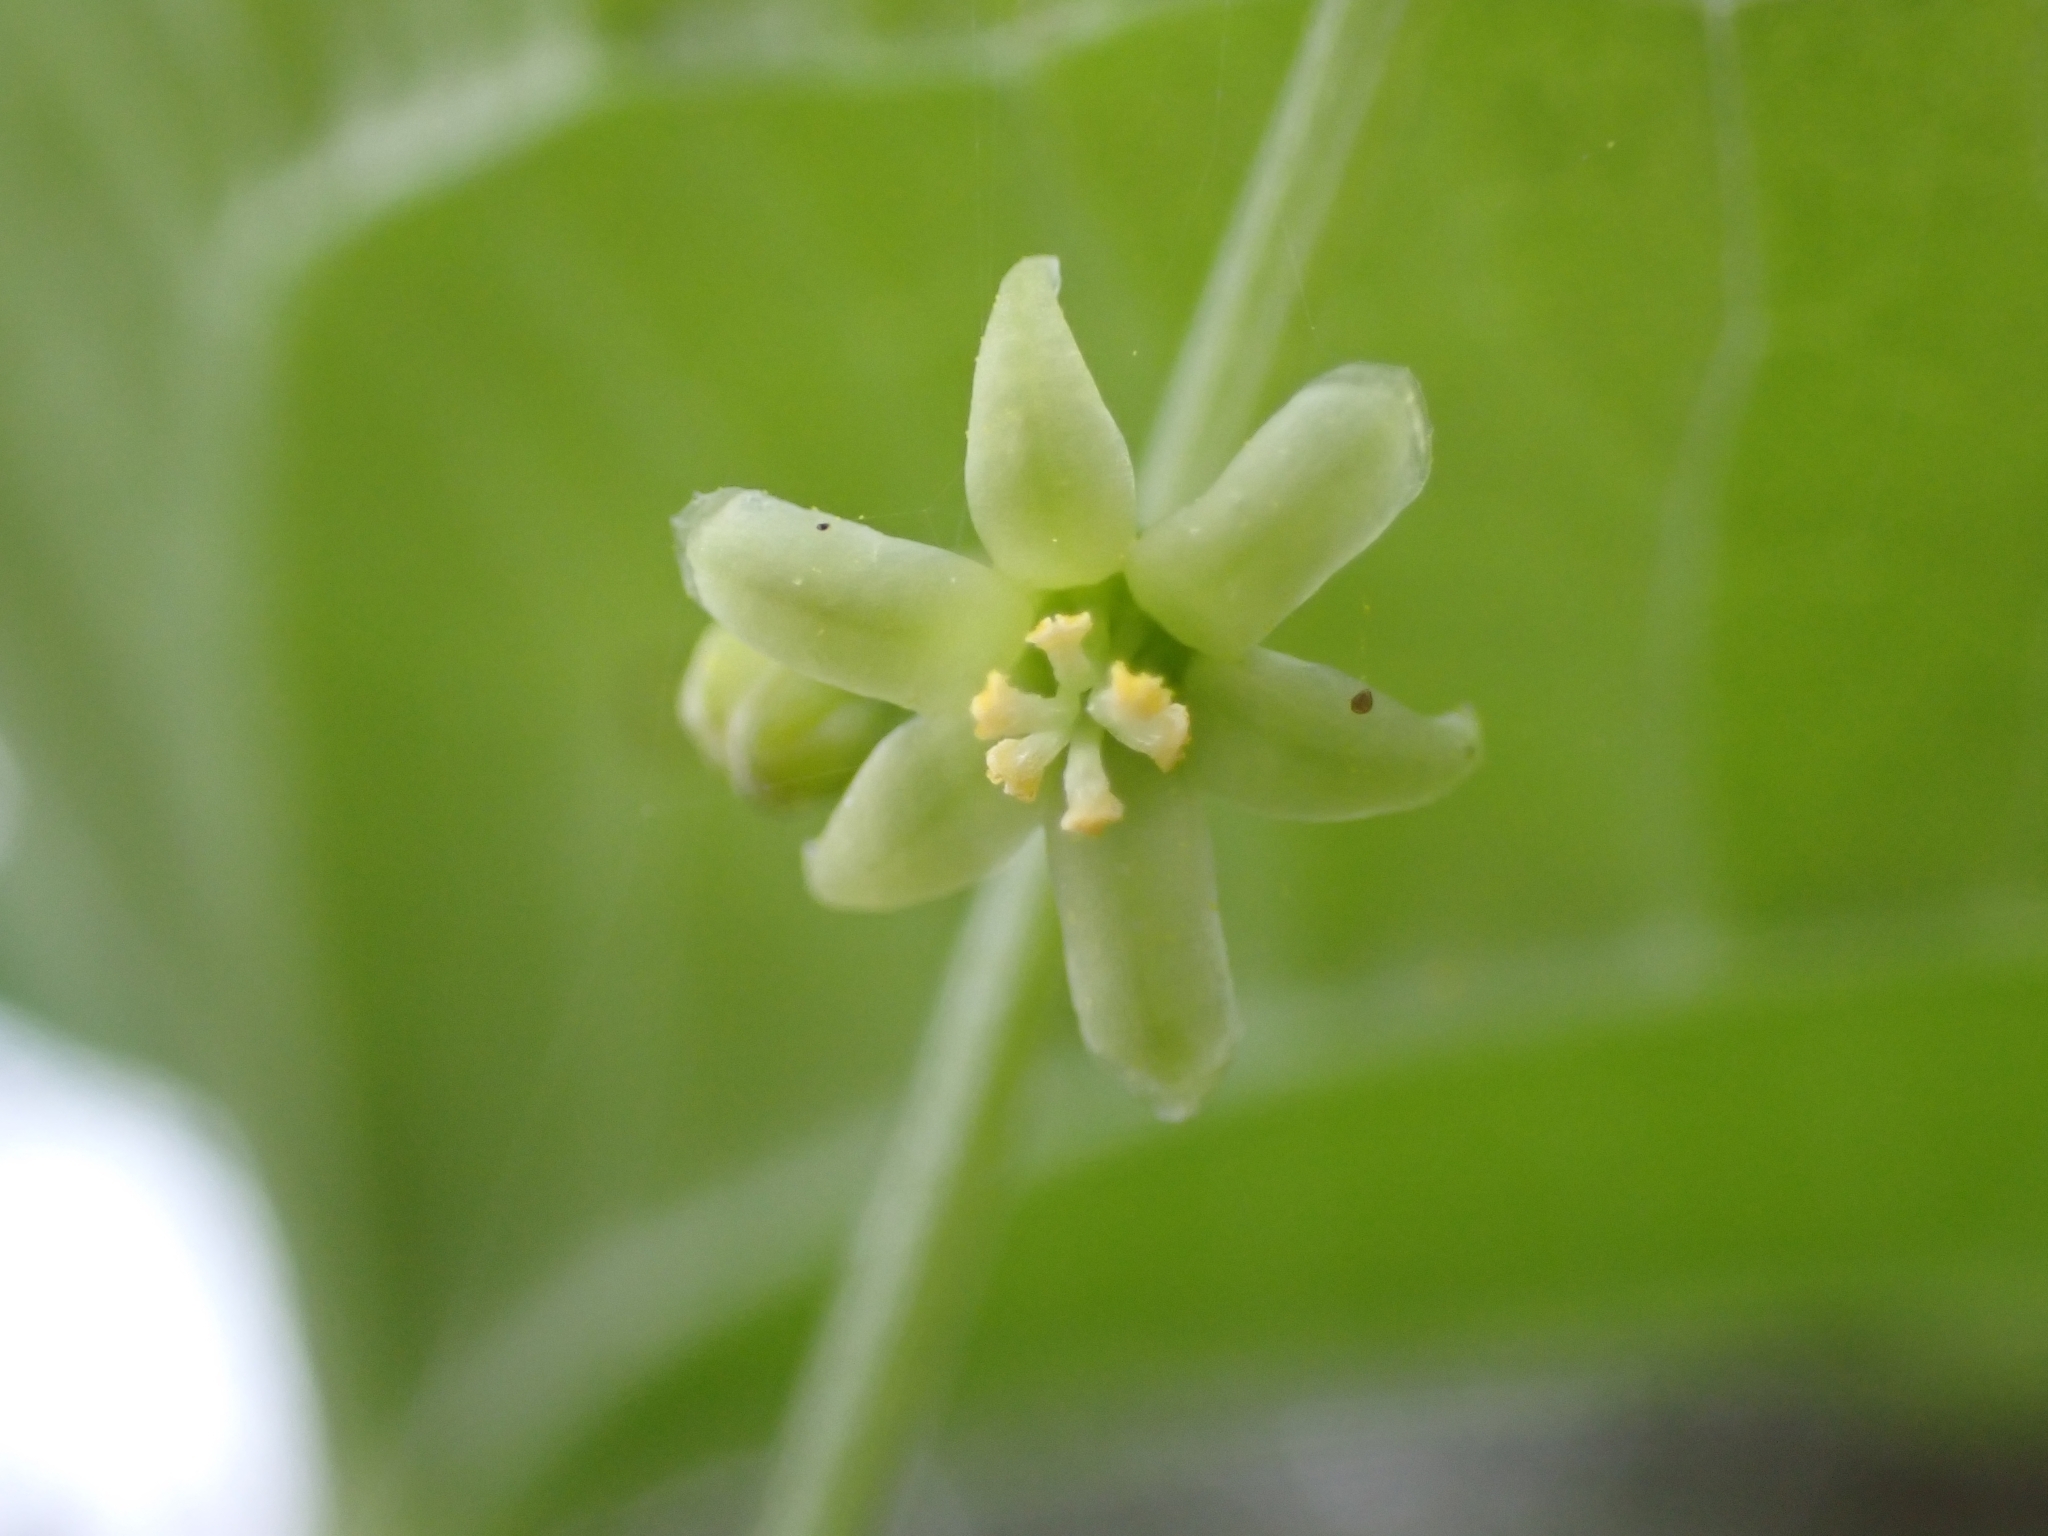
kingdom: Plantae
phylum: Tracheophyta
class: Liliopsida
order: Dioscoreales
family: Dioscoreaceae
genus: Dioscorea
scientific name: Dioscorea communis
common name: Black-bindweed
